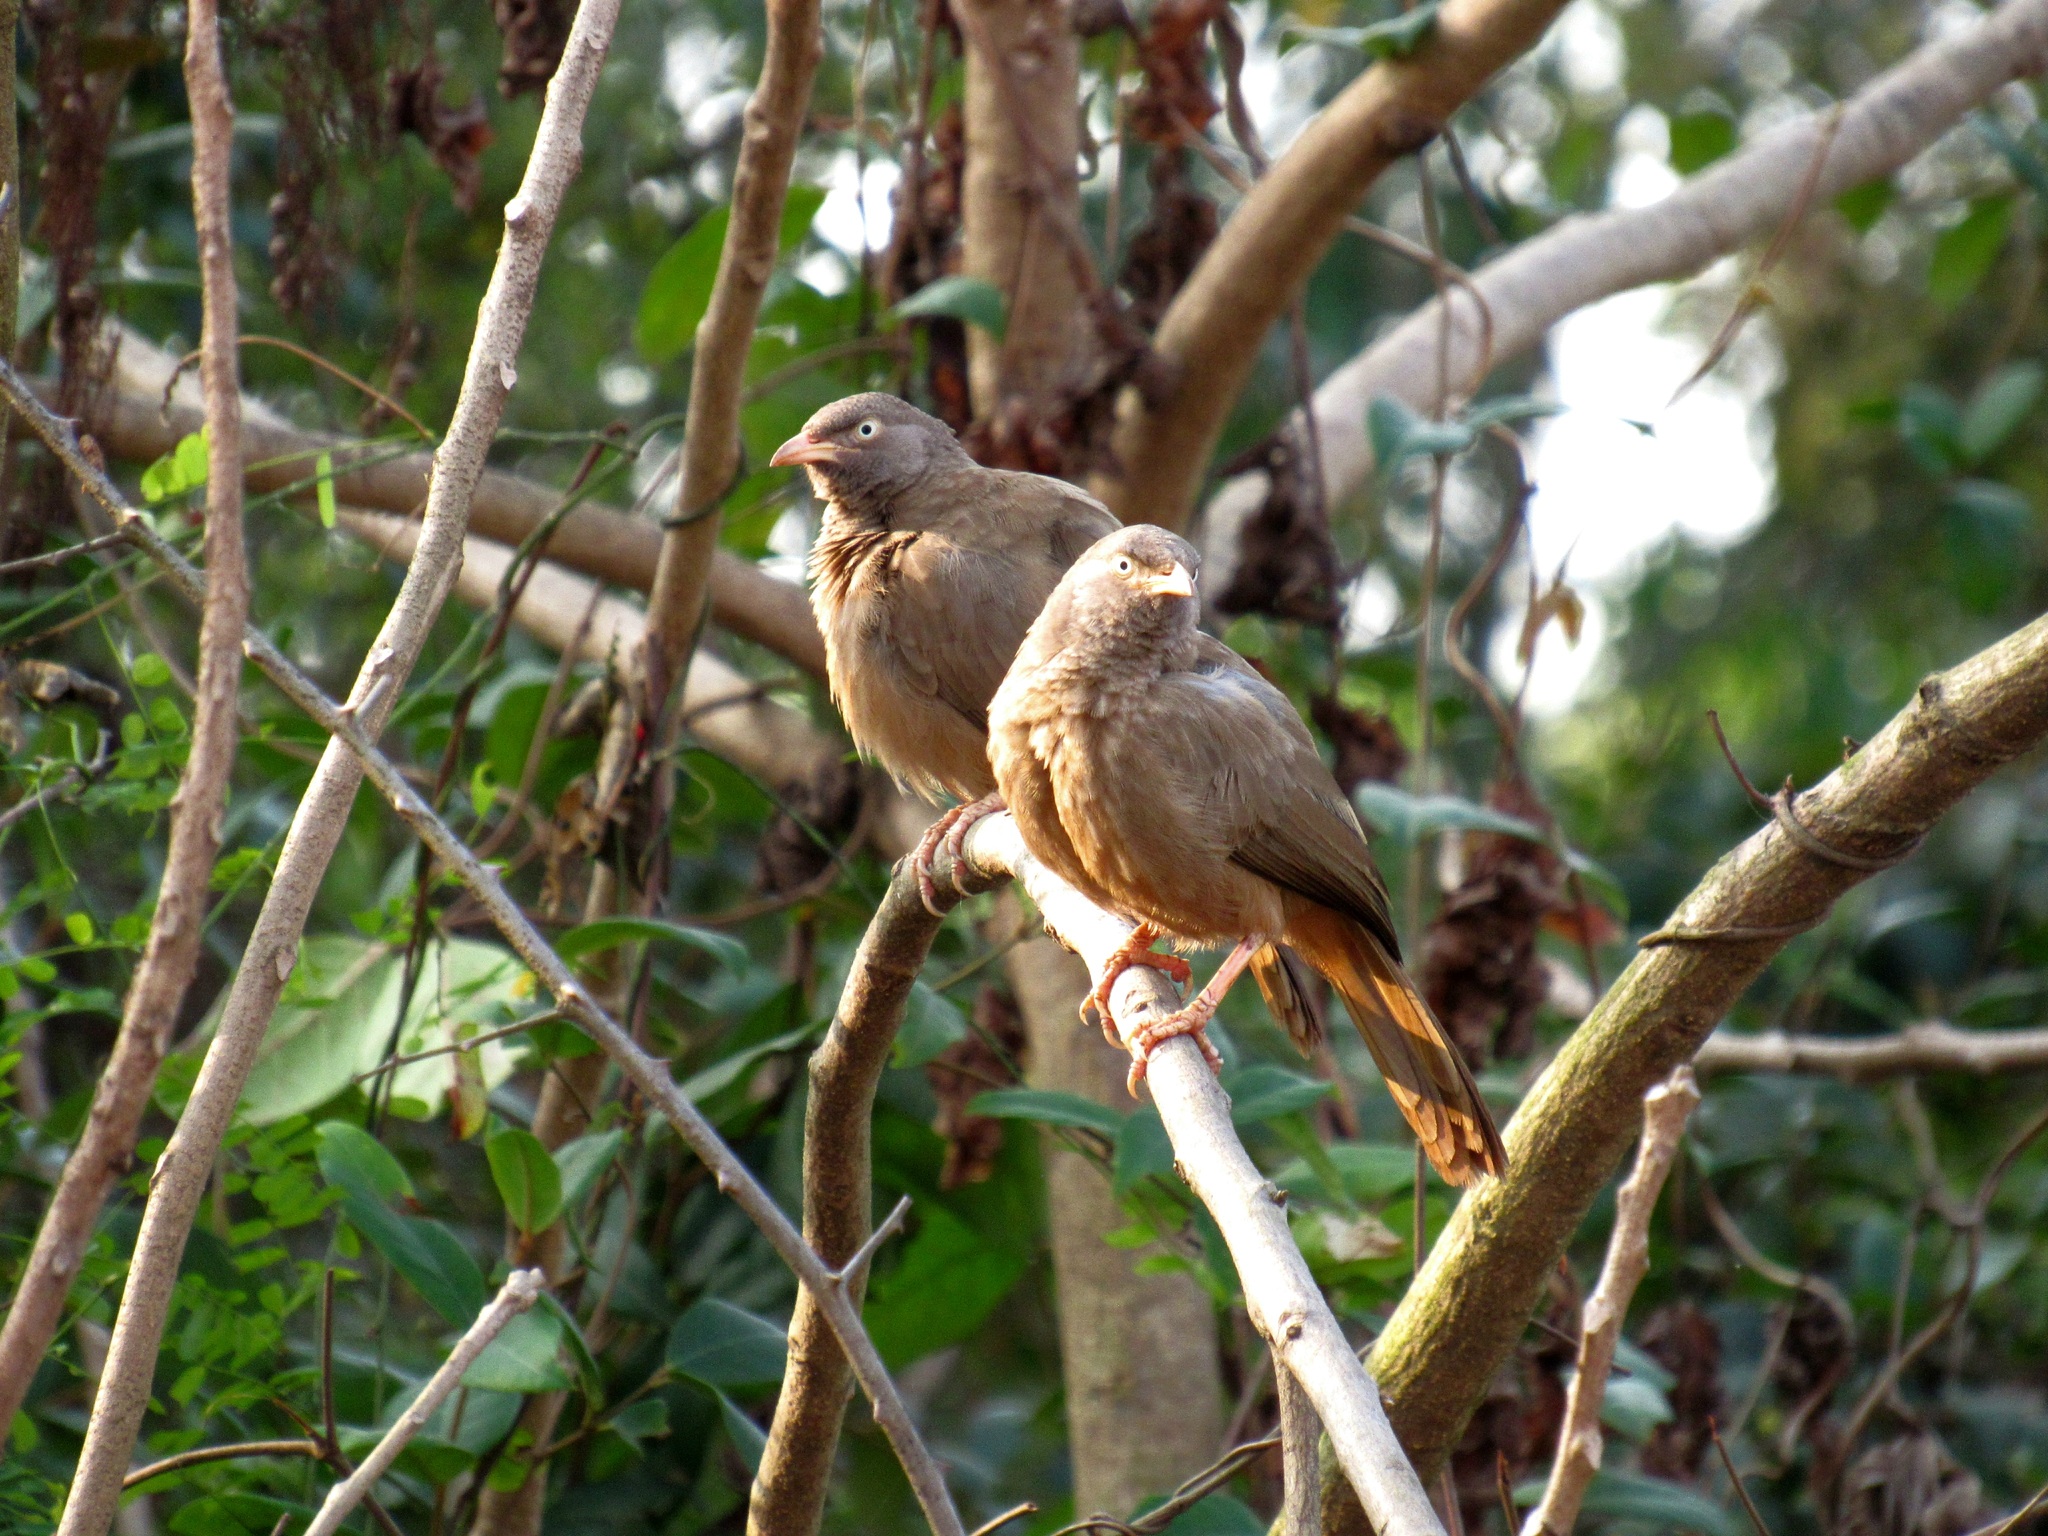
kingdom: Animalia
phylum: Chordata
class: Aves
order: Passeriformes
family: Leiothrichidae
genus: Turdoides
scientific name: Turdoides striata
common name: Jungle babbler
